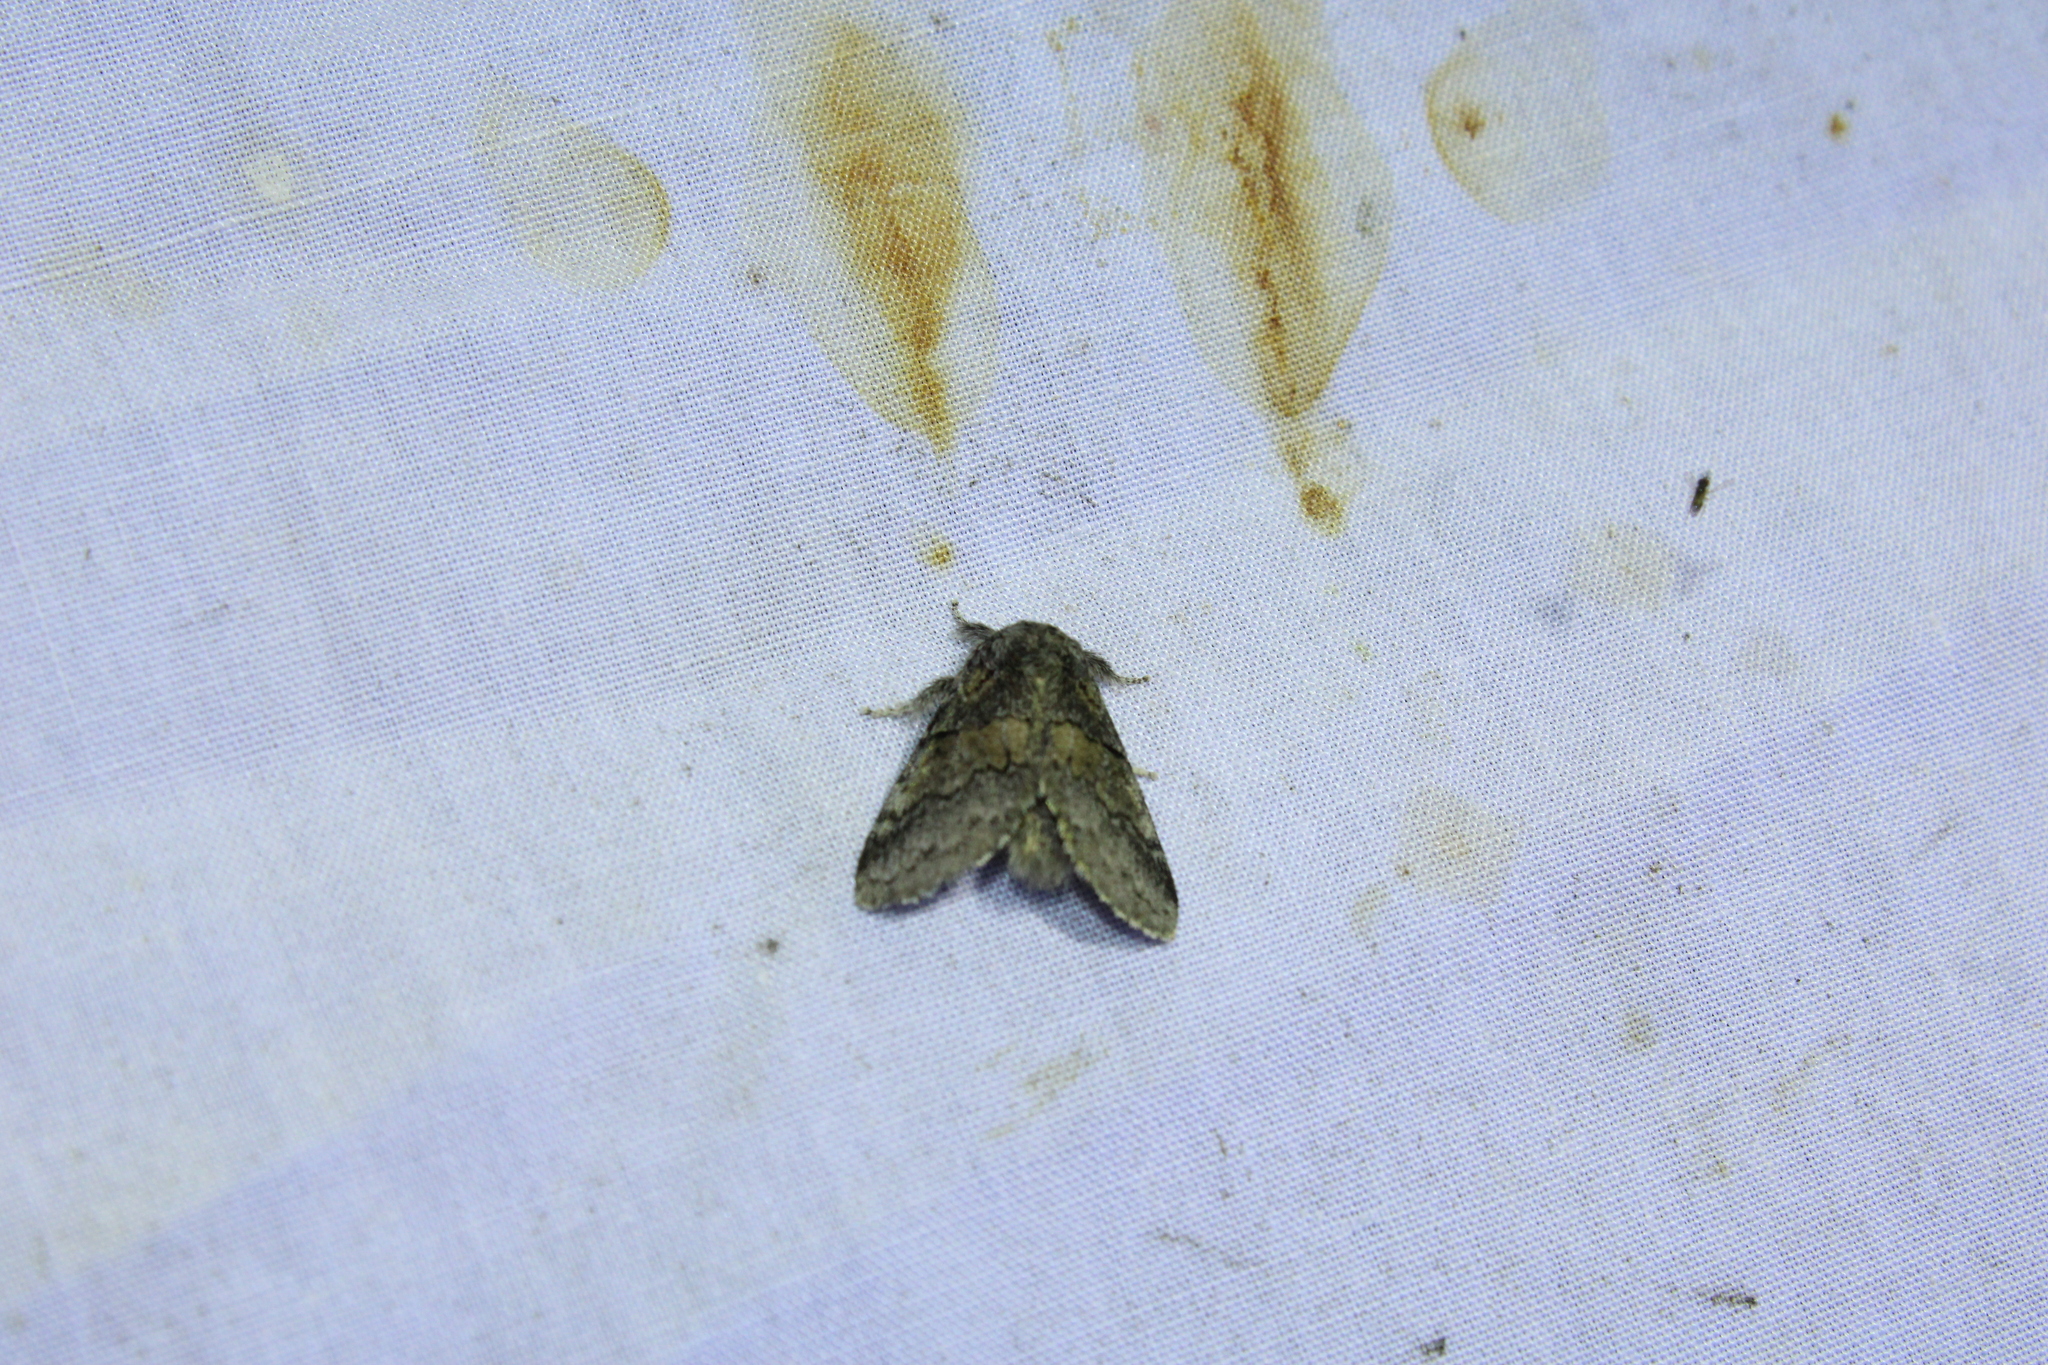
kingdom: Animalia
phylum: Arthropoda
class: Insecta
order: Lepidoptera
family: Notodontidae
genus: Gluphisia
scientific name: Gluphisia septentrionis
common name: Common gluphisia
